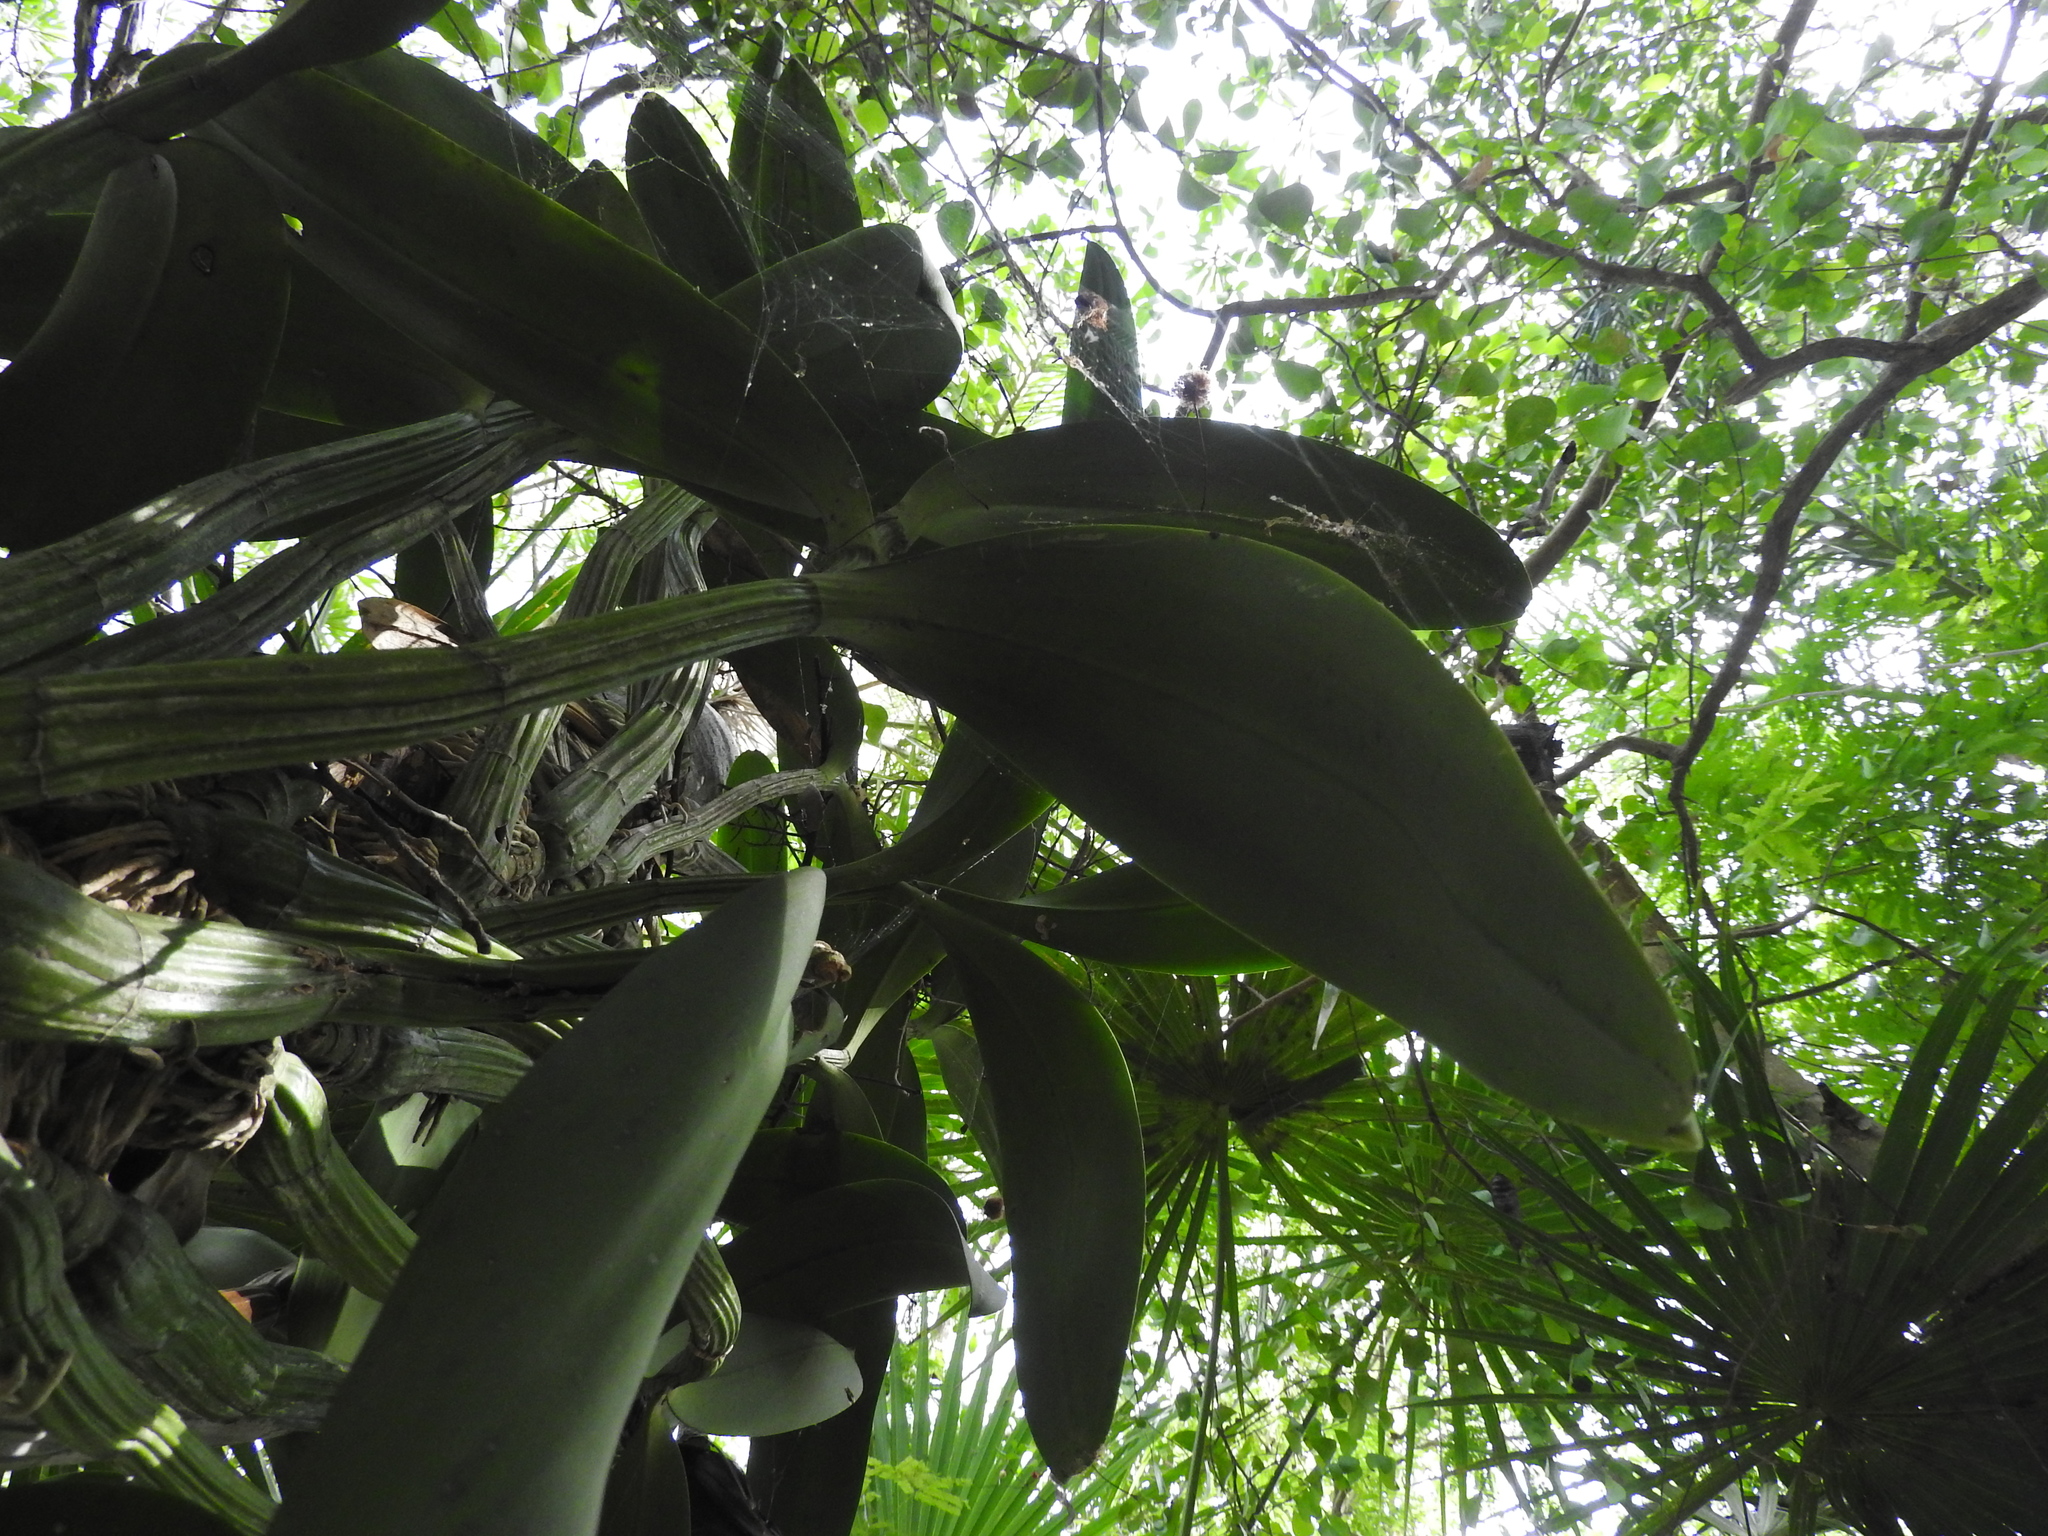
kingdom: Plantae
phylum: Tracheophyta
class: Liliopsida
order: Asparagales
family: Orchidaceae
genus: Myrmecophila
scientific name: Myrmecophila christinae
